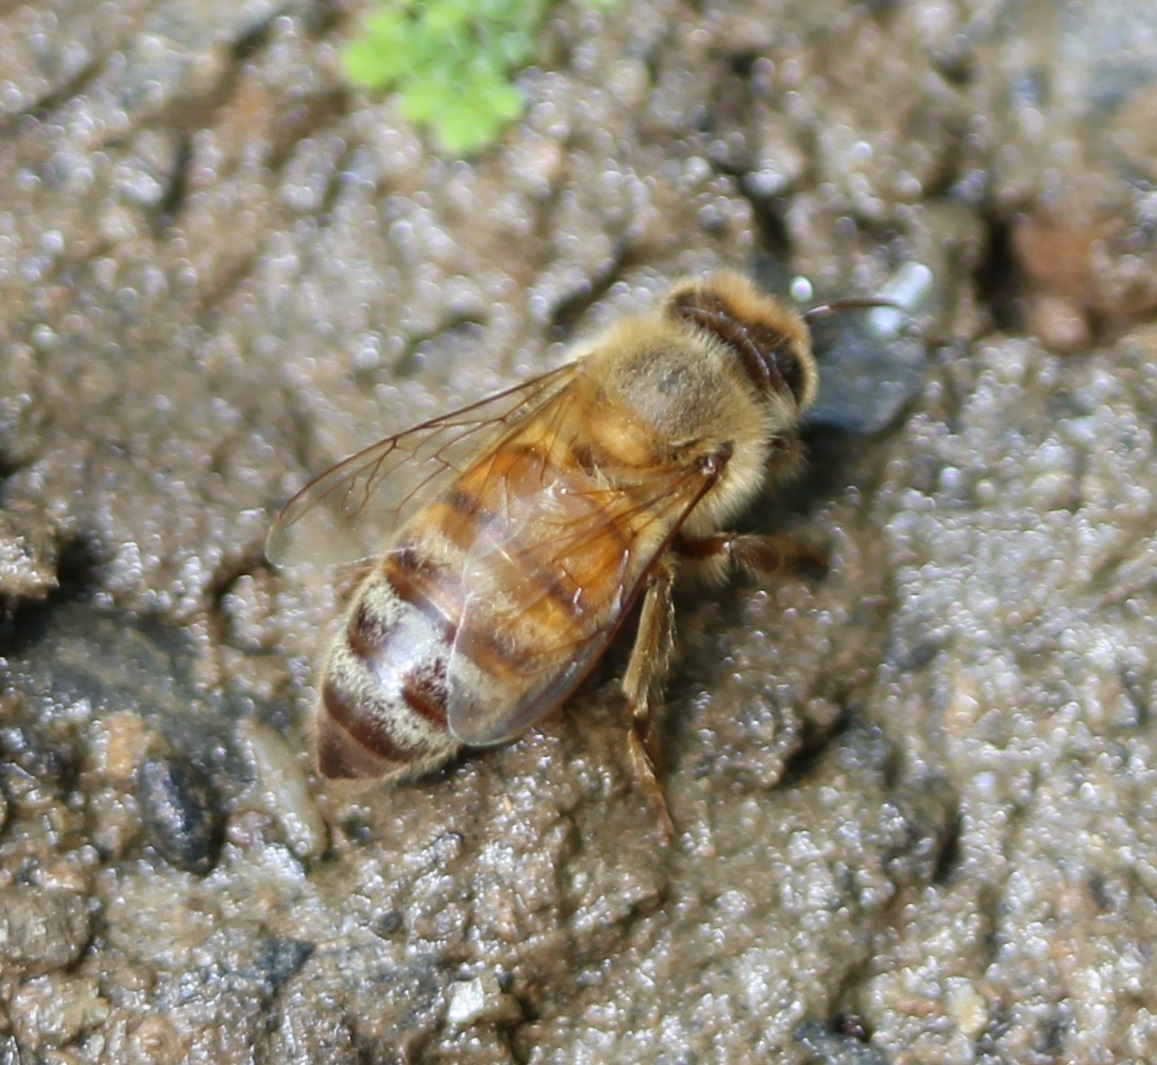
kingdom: Animalia
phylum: Arthropoda
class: Insecta
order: Hymenoptera
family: Apidae
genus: Apis
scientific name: Apis mellifera
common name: Honey bee
